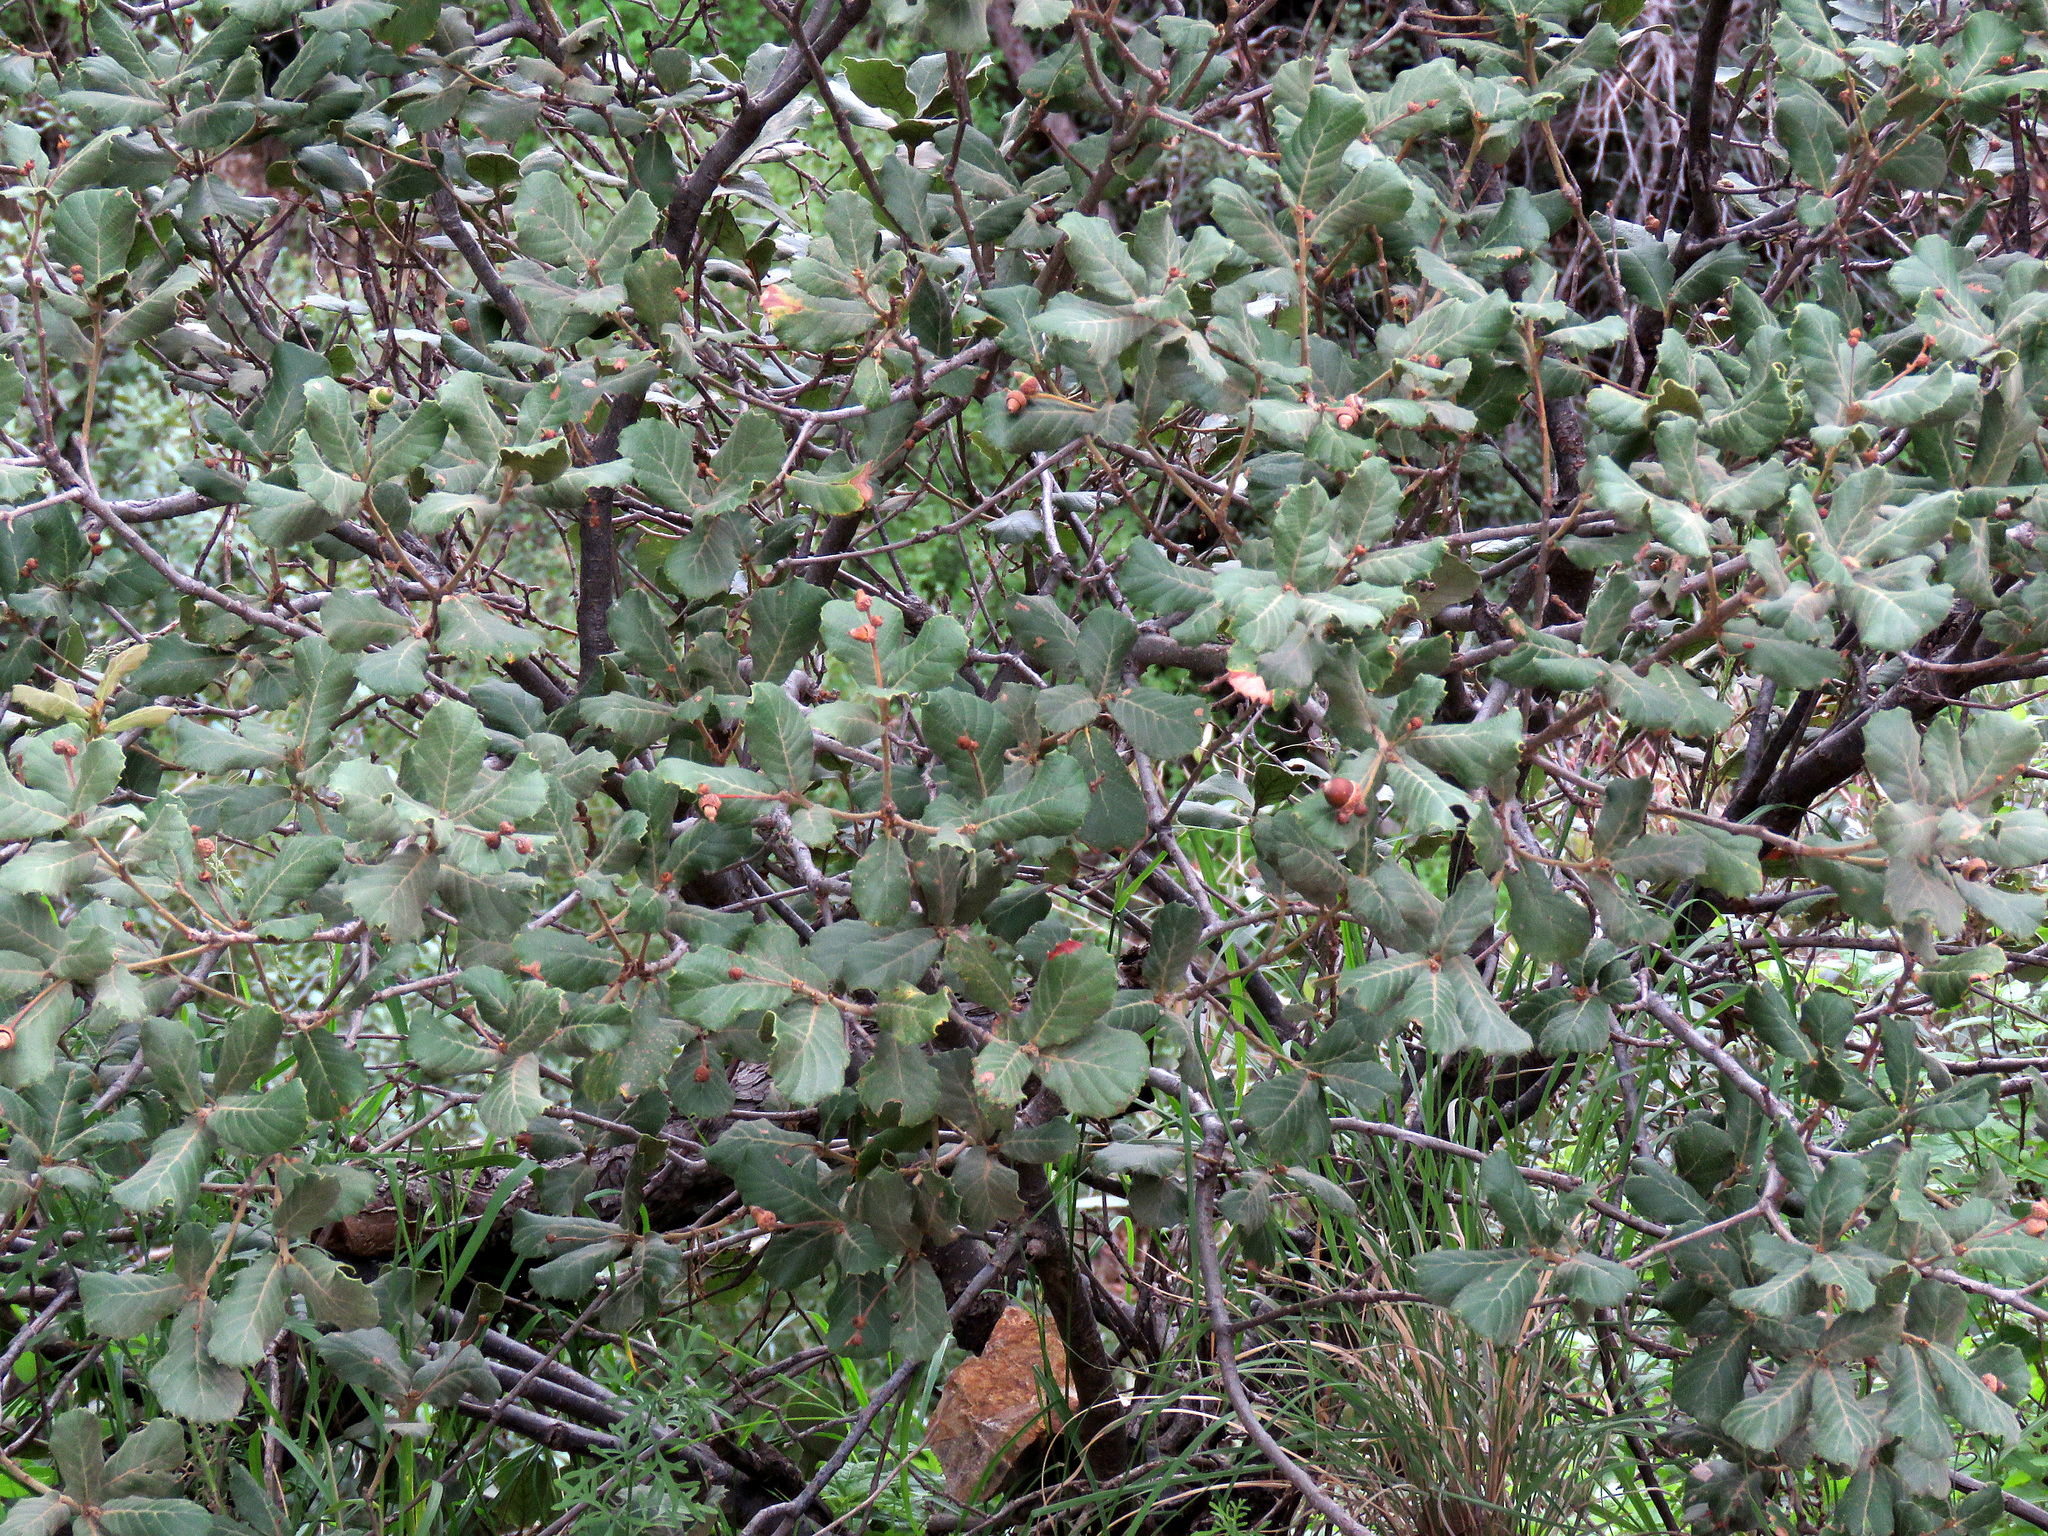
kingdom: Plantae
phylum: Tracheophyta
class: Magnoliopsida
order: Fagales
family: Fagaceae
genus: Quercus
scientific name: Quercus rugosa
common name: Netleaf oak
